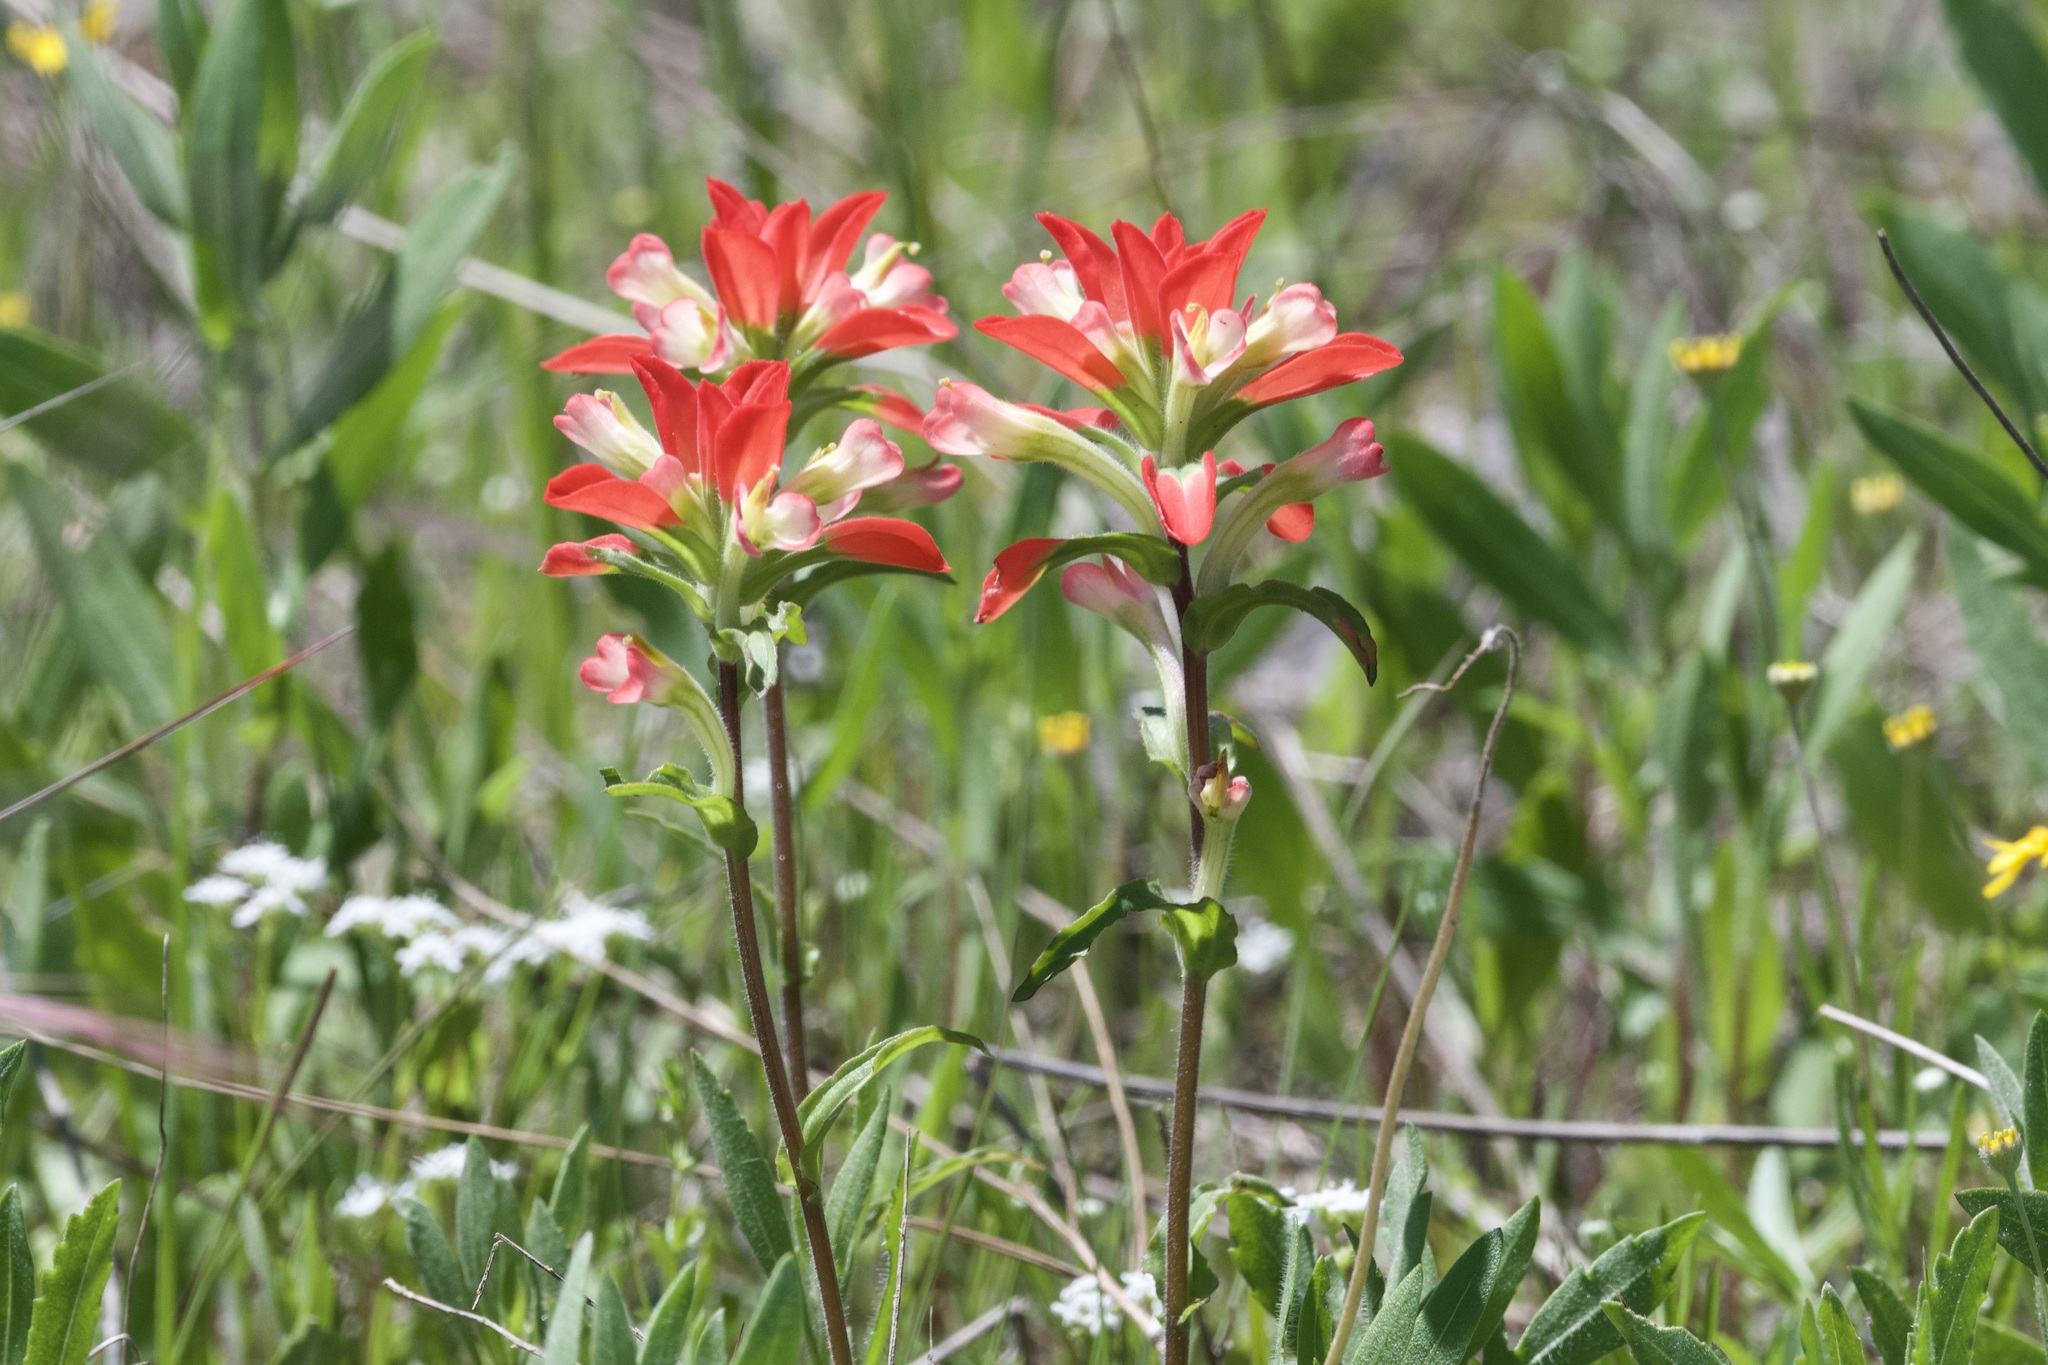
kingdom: Plantae
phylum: Tracheophyta
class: Magnoliopsida
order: Lamiales
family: Orobanchaceae
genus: Castilleja
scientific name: Castilleja indivisa
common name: Texas paintbrush
